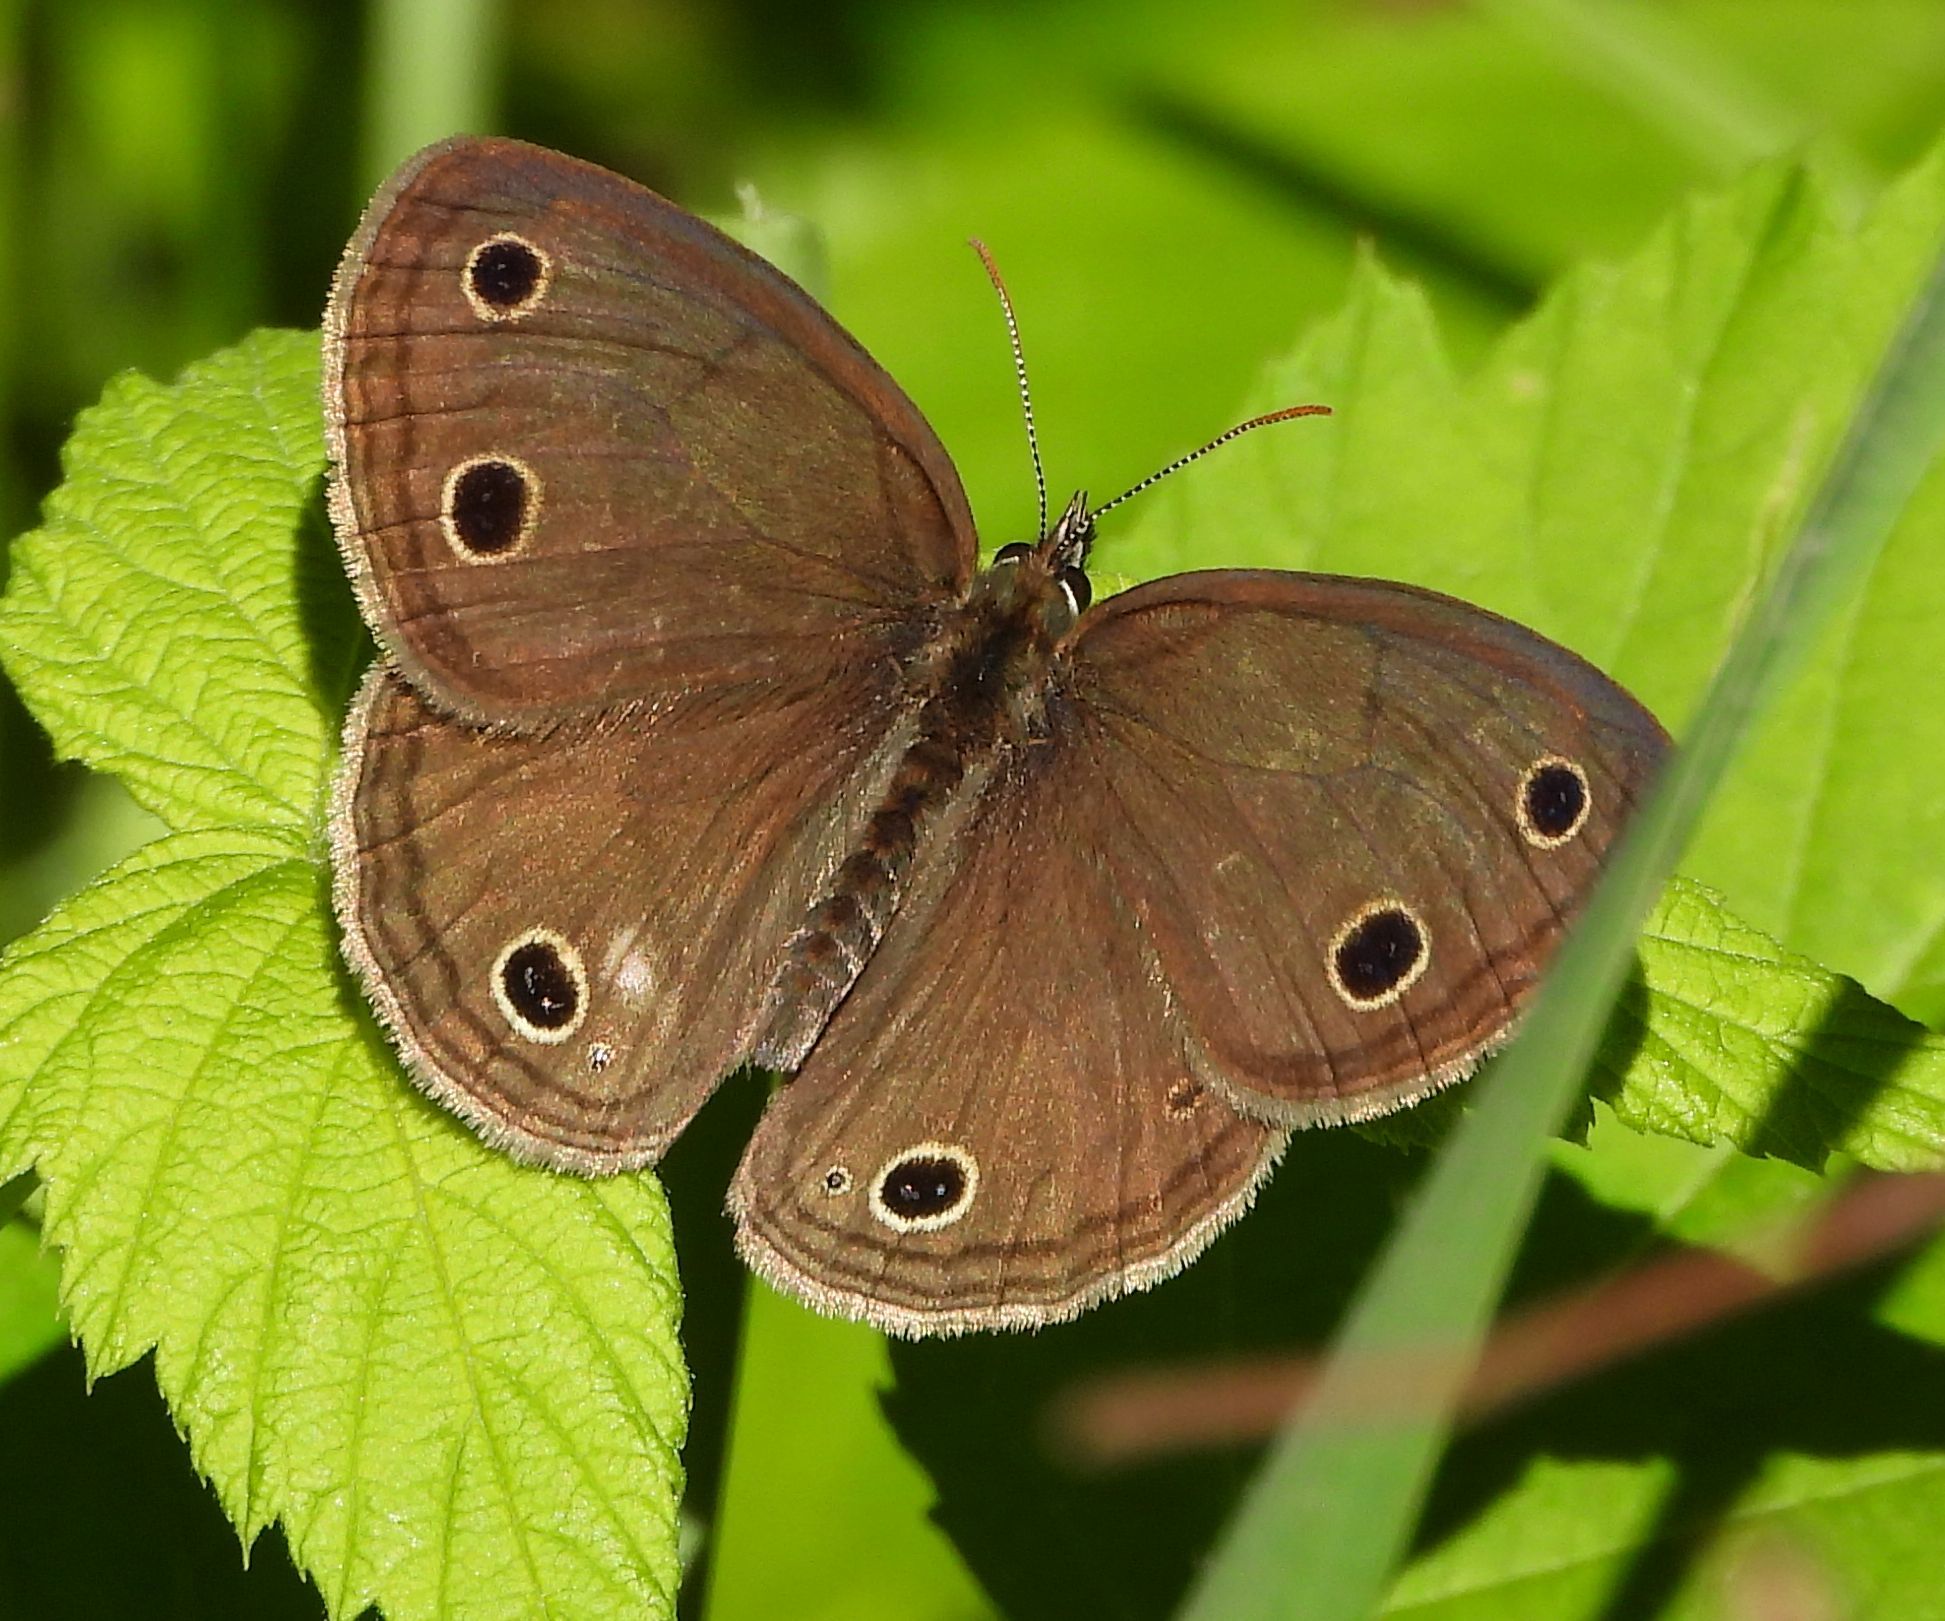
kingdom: Animalia
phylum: Arthropoda
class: Insecta
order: Lepidoptera
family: Nymphalidae
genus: Euptychia
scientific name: Euptychia cymela
